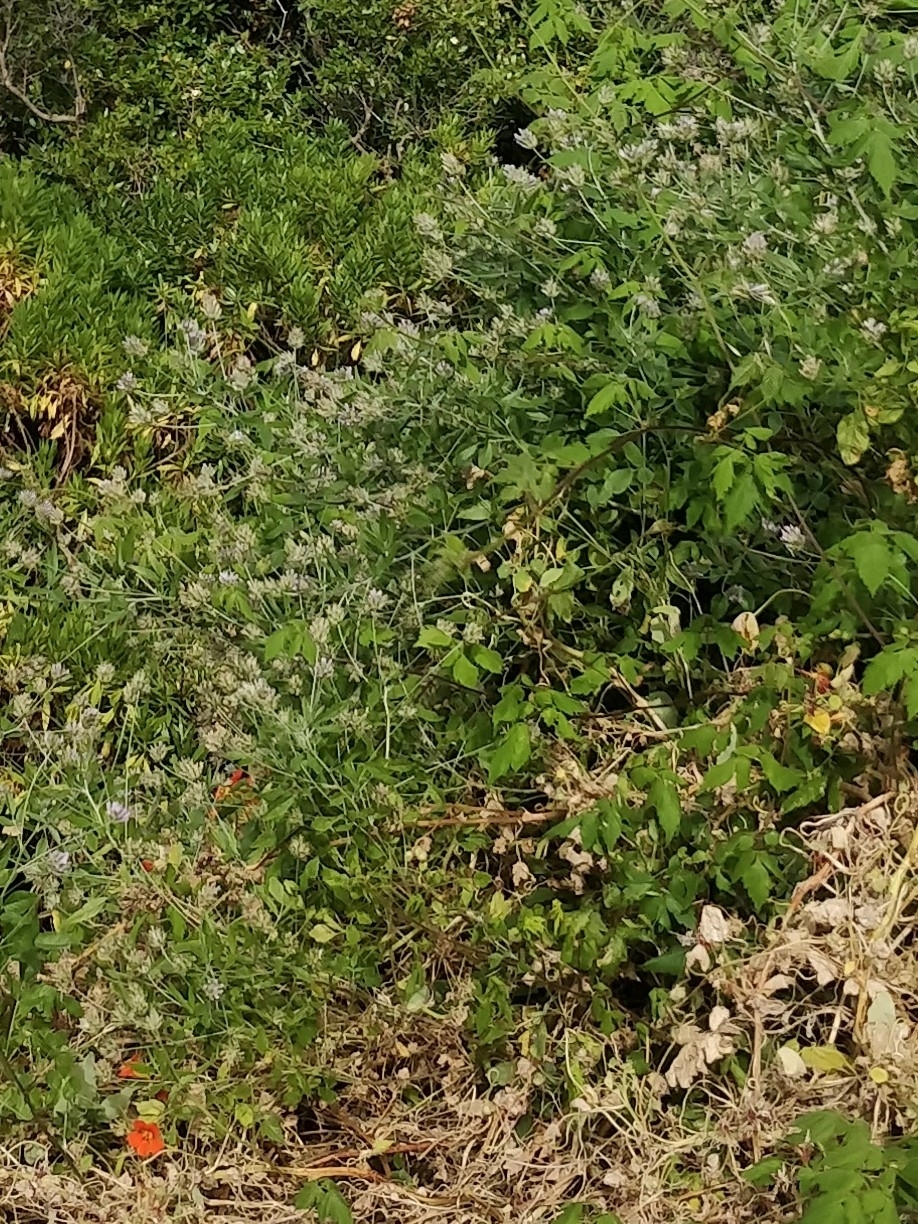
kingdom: Plantae
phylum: Tracheophyta
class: Magnoliopsida
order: Sapindales
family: Sapindaceae
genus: Cardiospermum
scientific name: Cardiospermum grandiflorum
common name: Balloon vine
